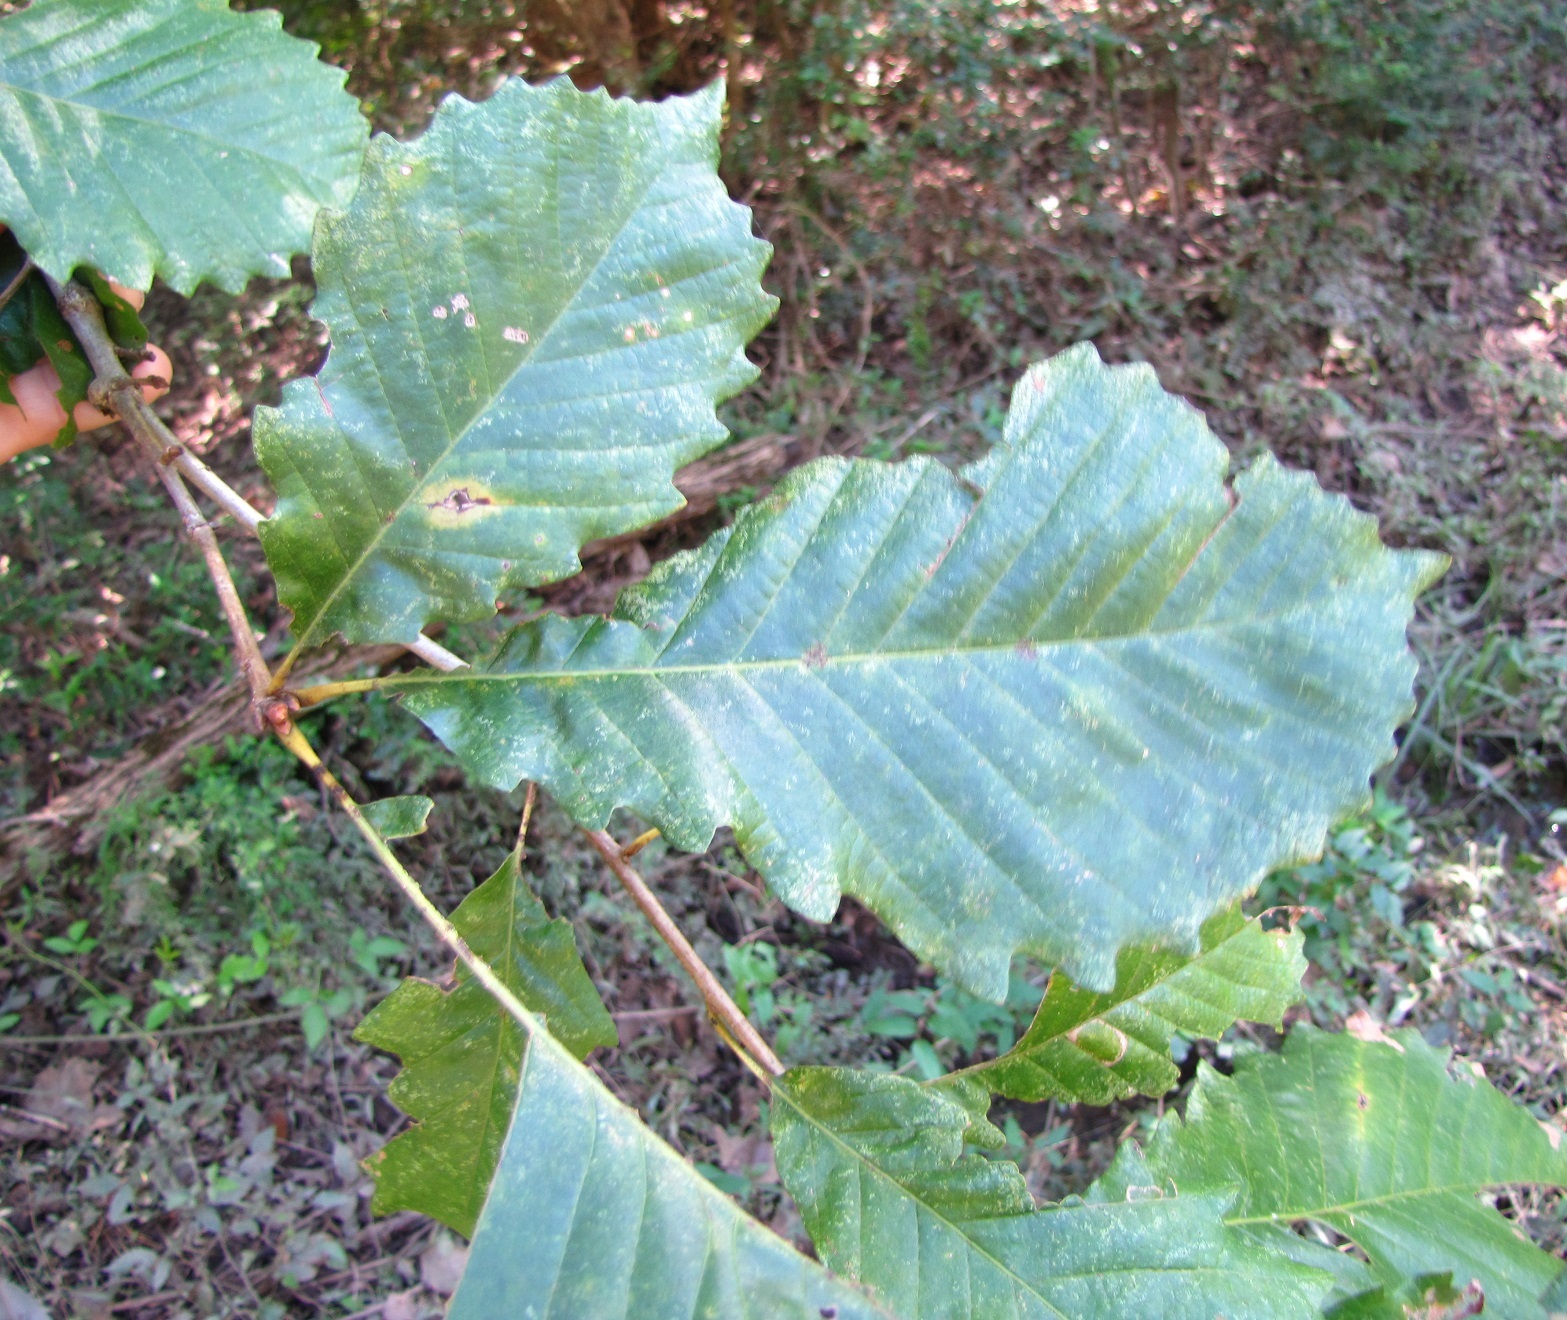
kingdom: Plantae
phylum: Tracheophyta
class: Magnoliopsida
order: Fagales
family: Fagaceae
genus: Quercus
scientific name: Quercus michauxii
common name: Swamp chestnut oak
